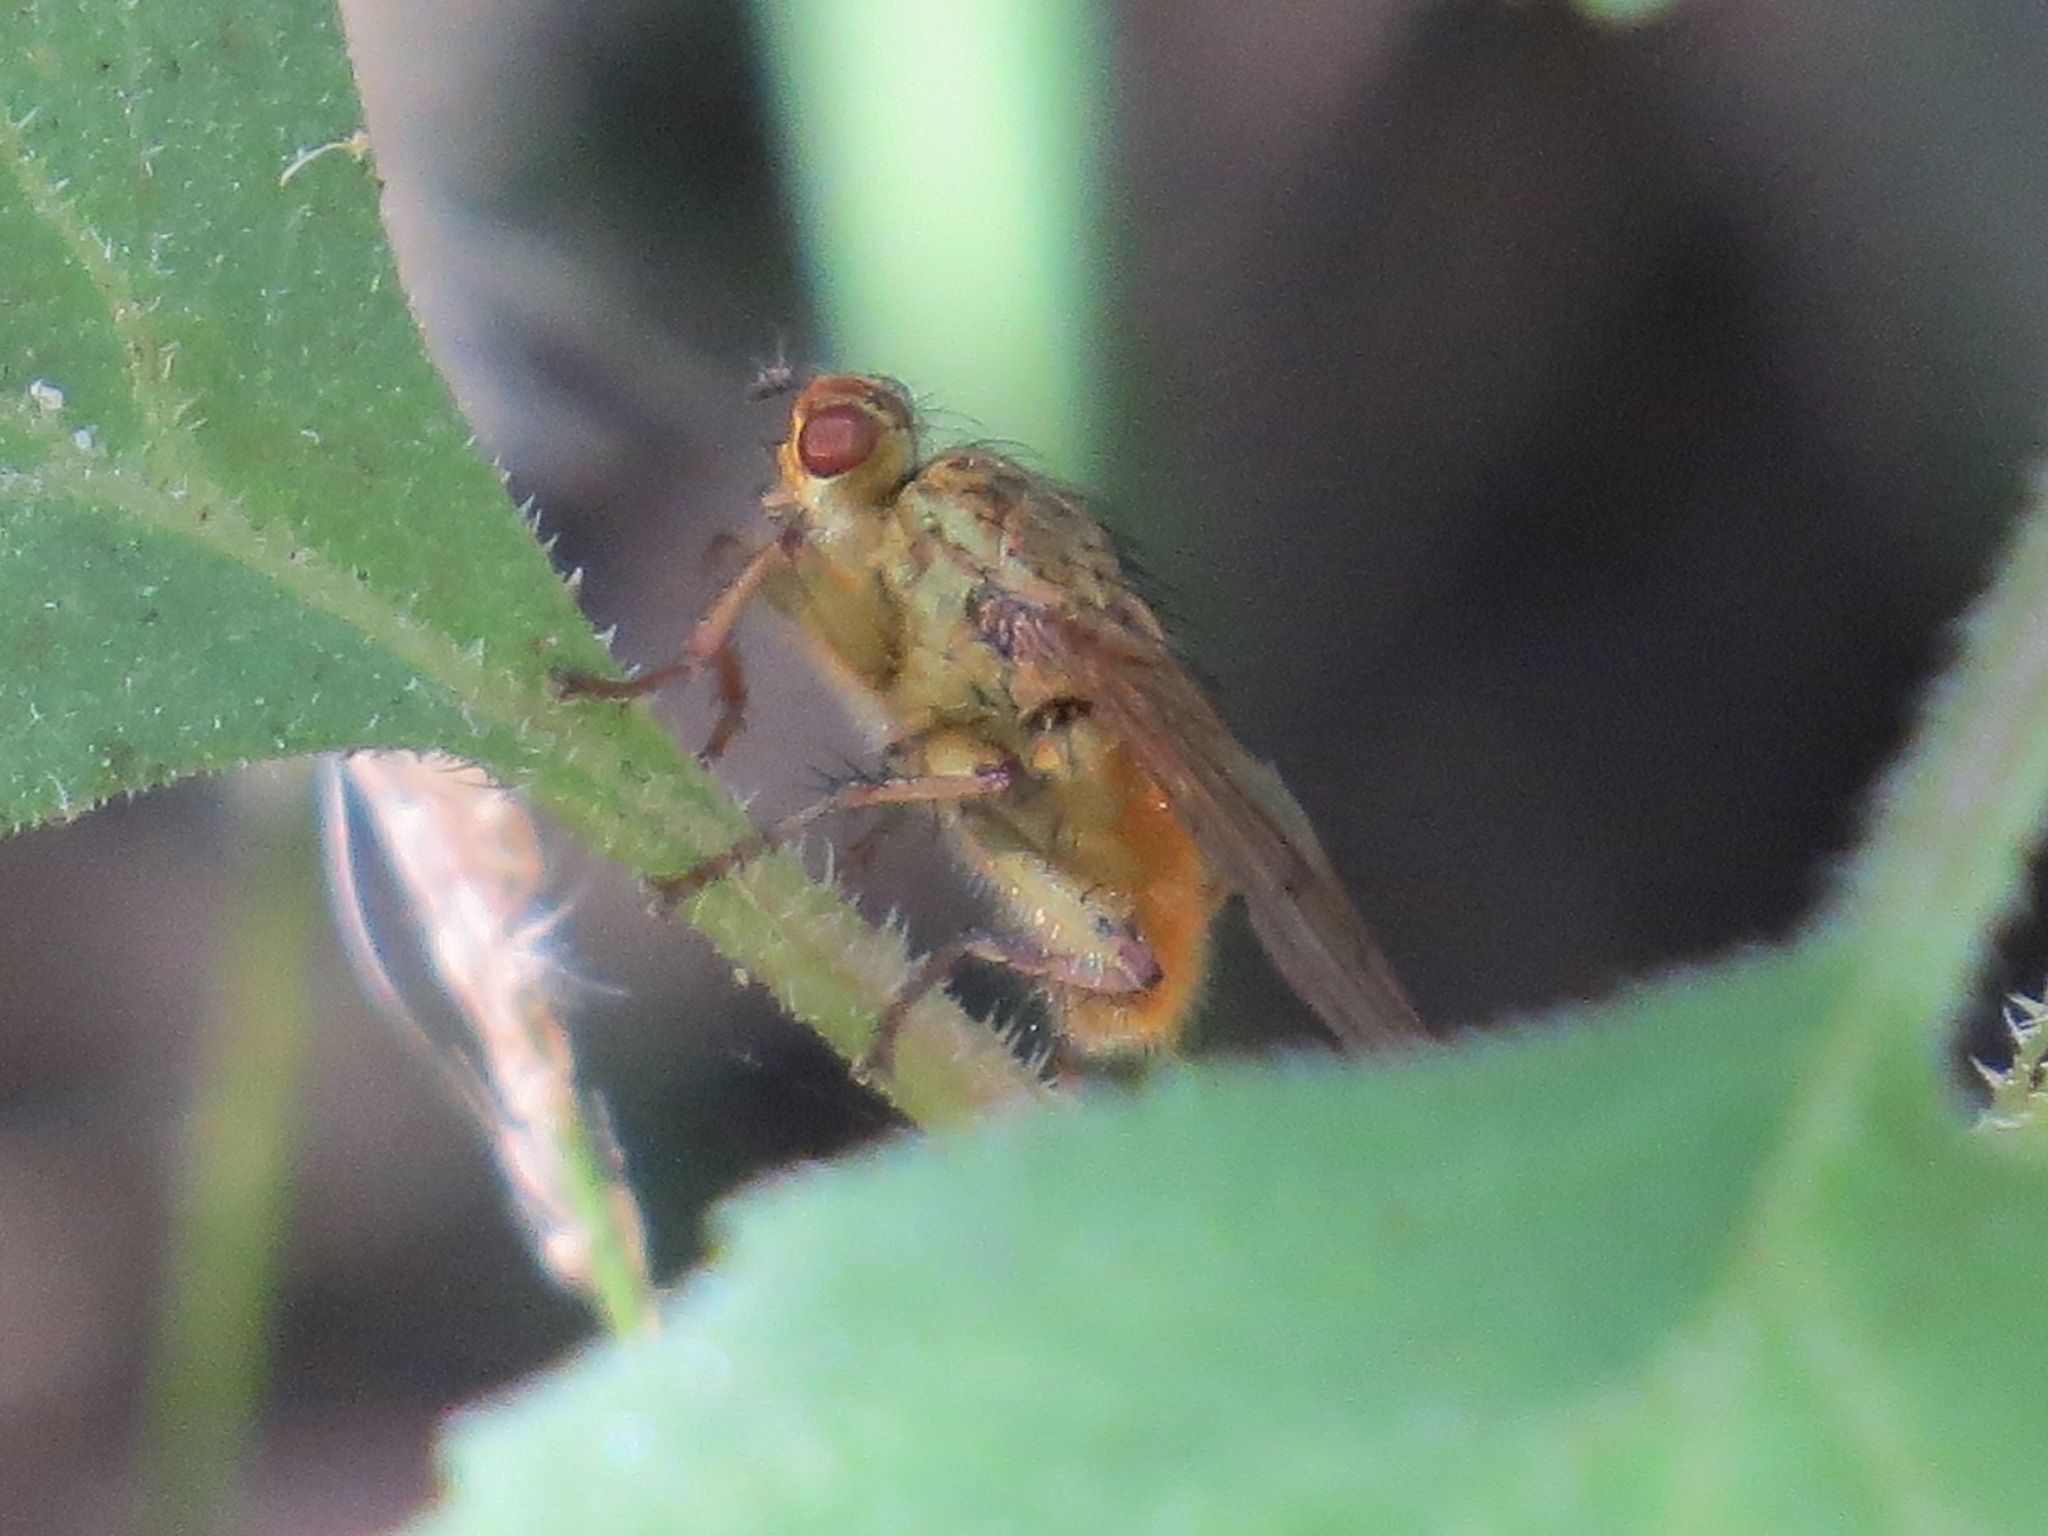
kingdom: Animalia
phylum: Arthropoda
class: Insecta
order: Diptera
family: Scathophagidae
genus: Scathophaga
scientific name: Scathophaga stercoraria
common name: Yellow dung fly
